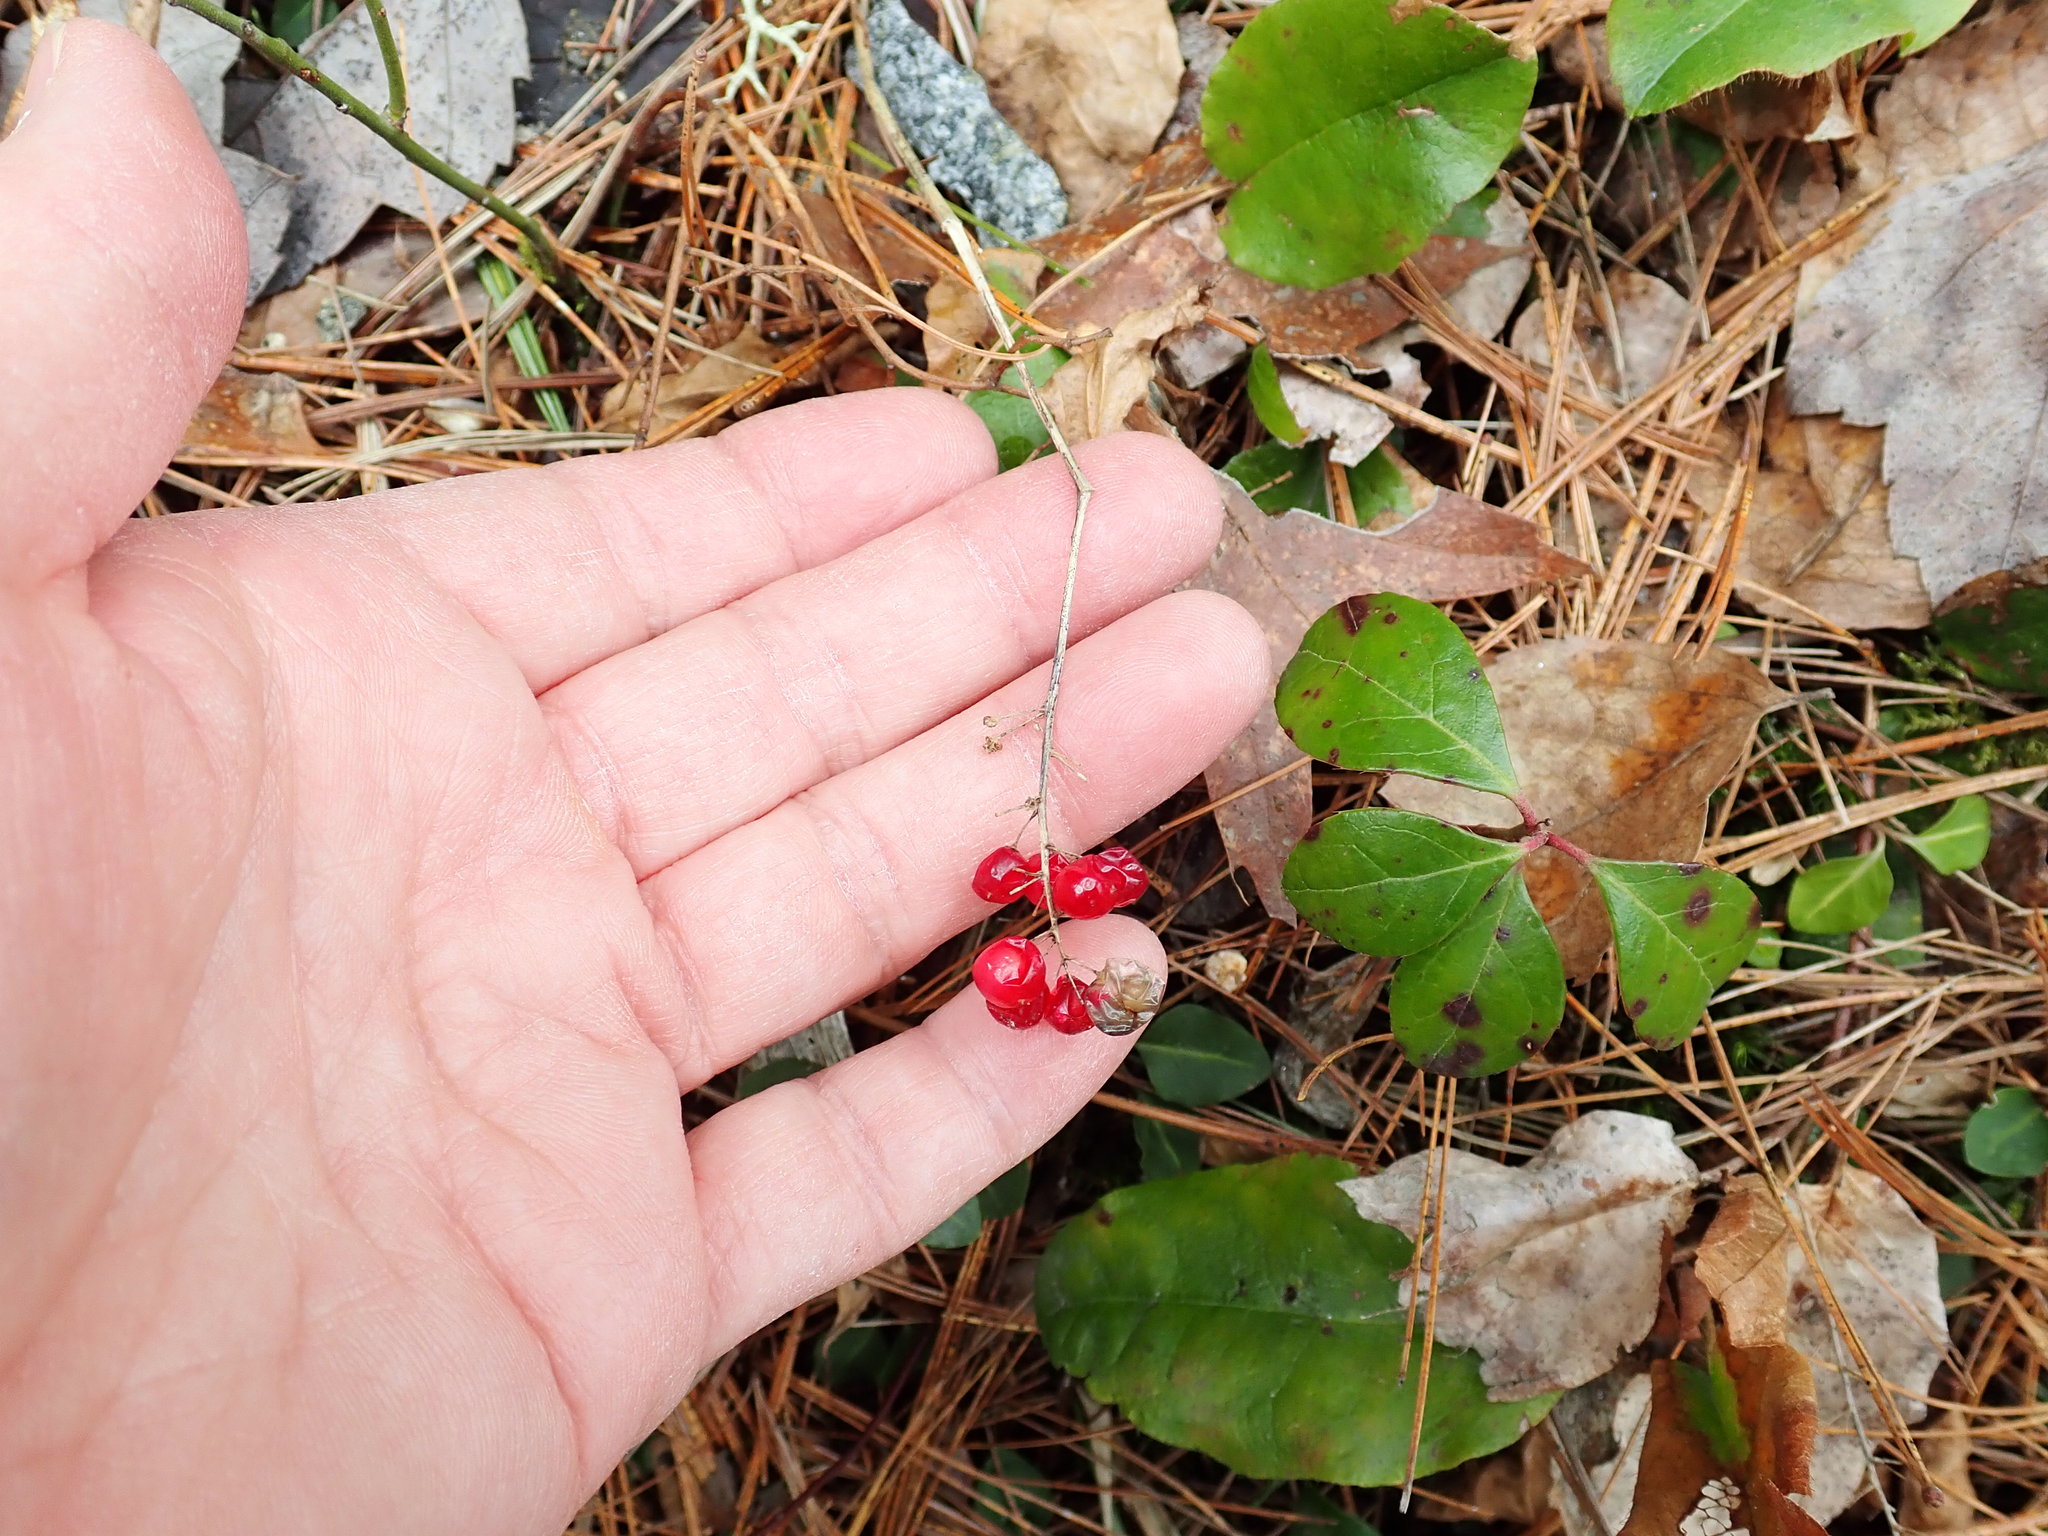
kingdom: Plantae
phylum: Tracheophyta
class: Liliopsida
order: Asparagales
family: Asparagaceae
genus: Maianthemum
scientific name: Maianthemum canadense
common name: False lily-of-the-valley
